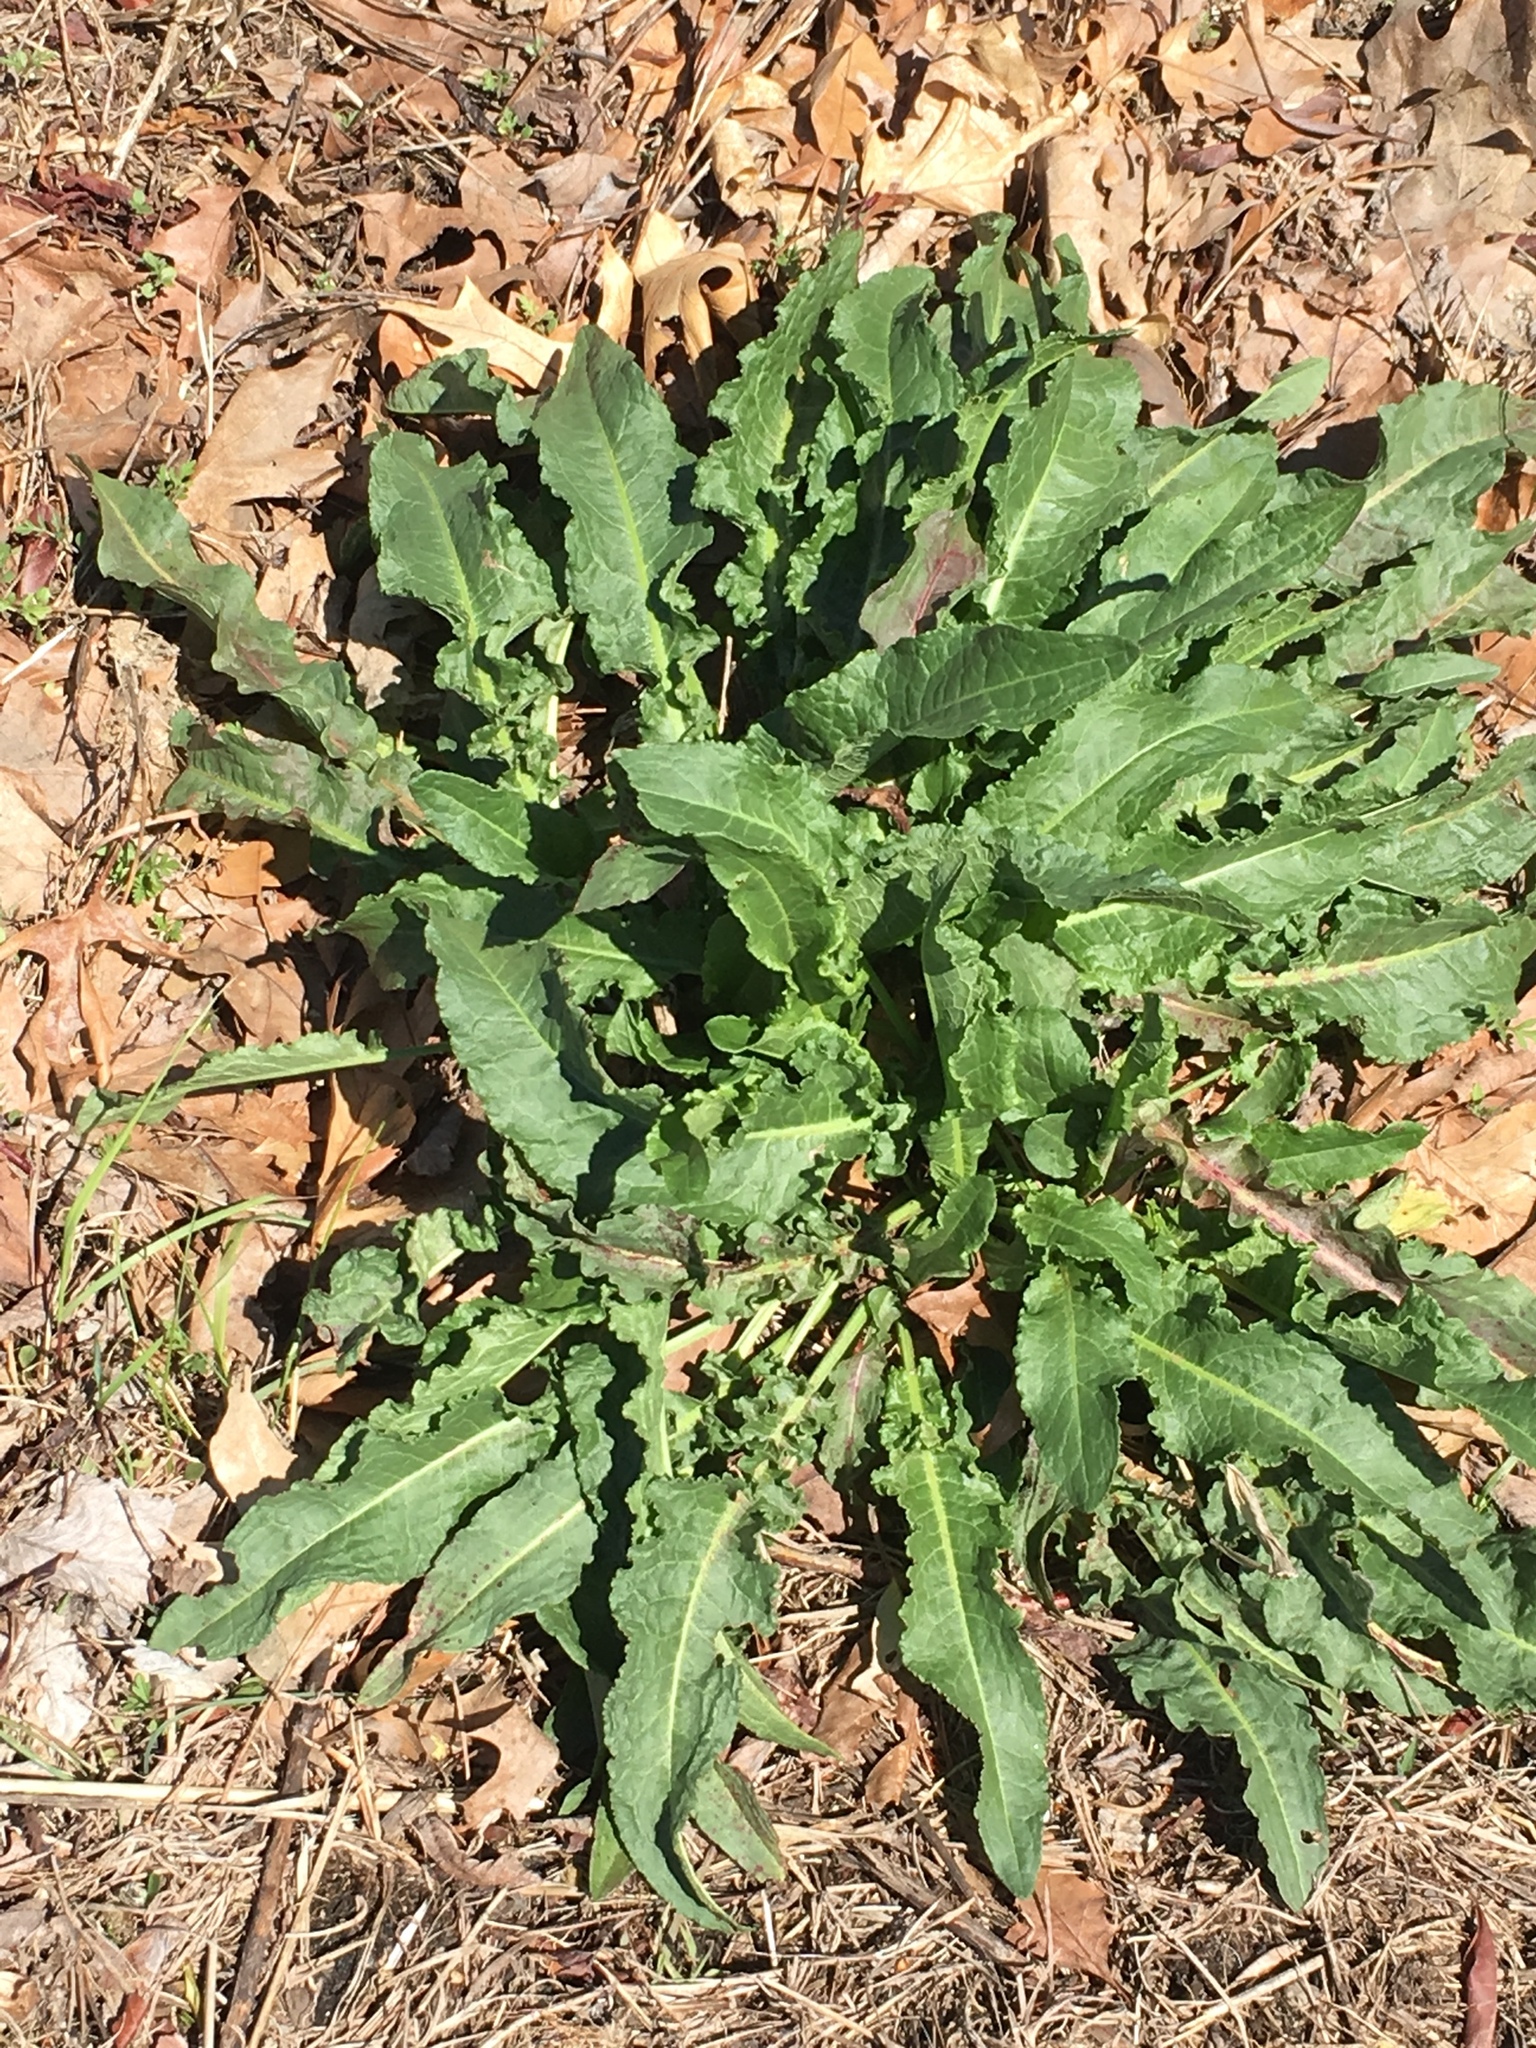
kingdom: Plantae
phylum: Tracheophyta
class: Magnoliopsida
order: Caryophyllales
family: Polygonaceae
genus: Rumex
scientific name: Rumex crispus
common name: Curled dock
